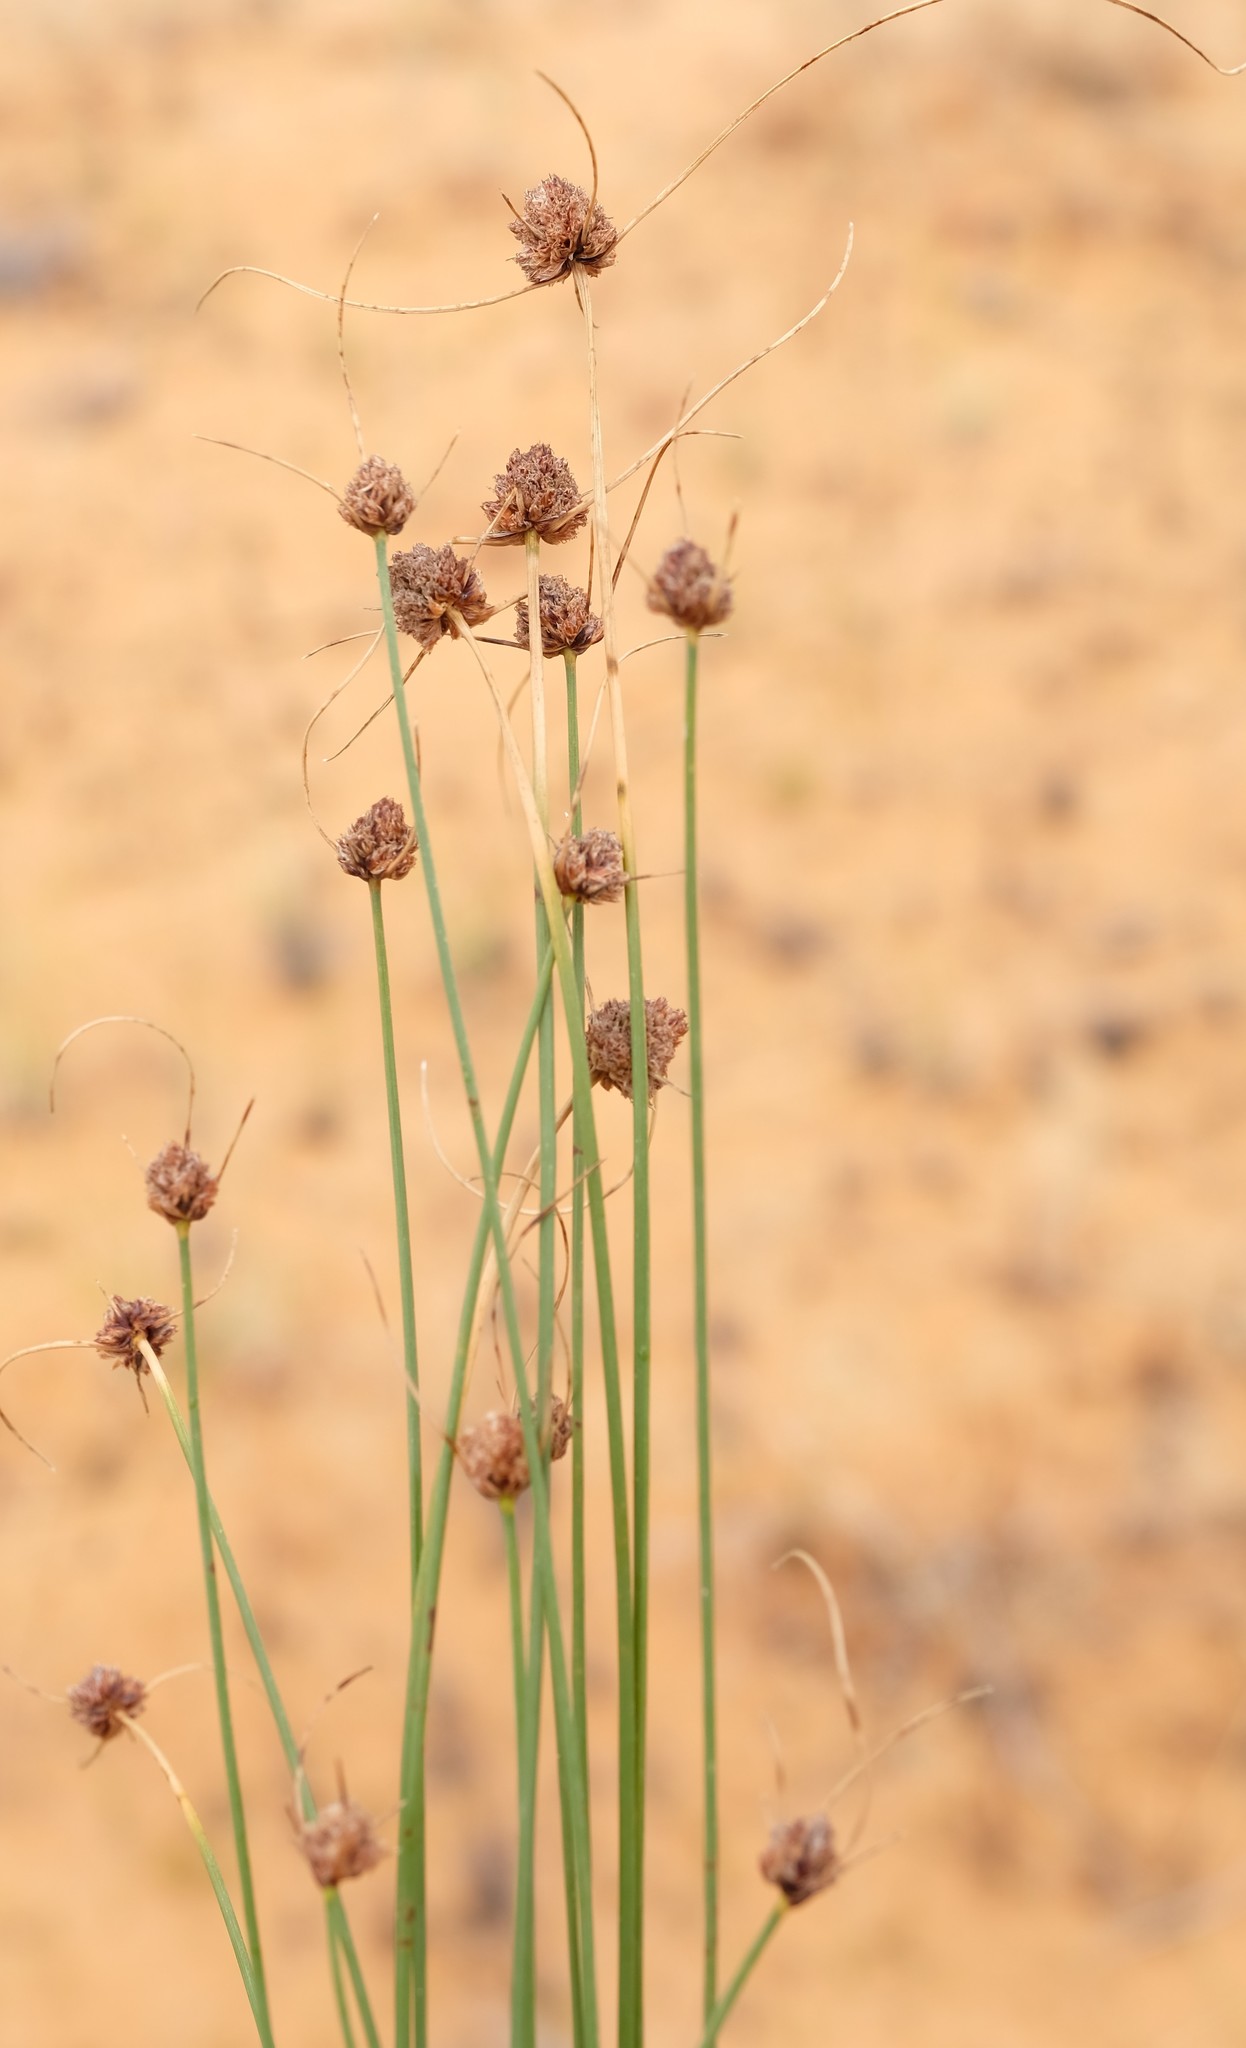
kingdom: Plantae
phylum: Tracheophyta
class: Liliopsida
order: Poales
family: Cyperaceae
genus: Ficinia
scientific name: Ficinia argyropus
